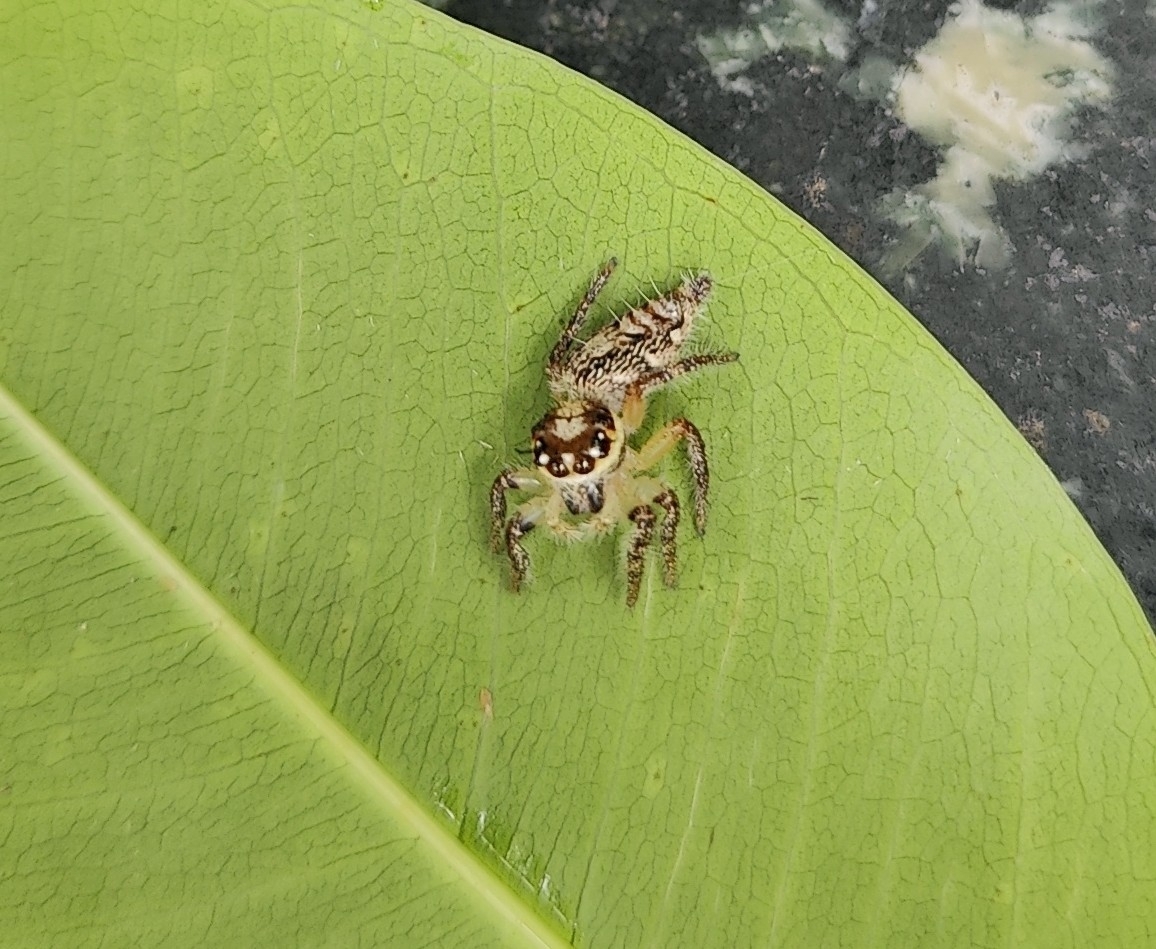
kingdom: Animalia
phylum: Arthropoda
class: Arachnida
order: Araneae
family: Salticidae
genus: Hyllus
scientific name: Hyllus semicupreus
